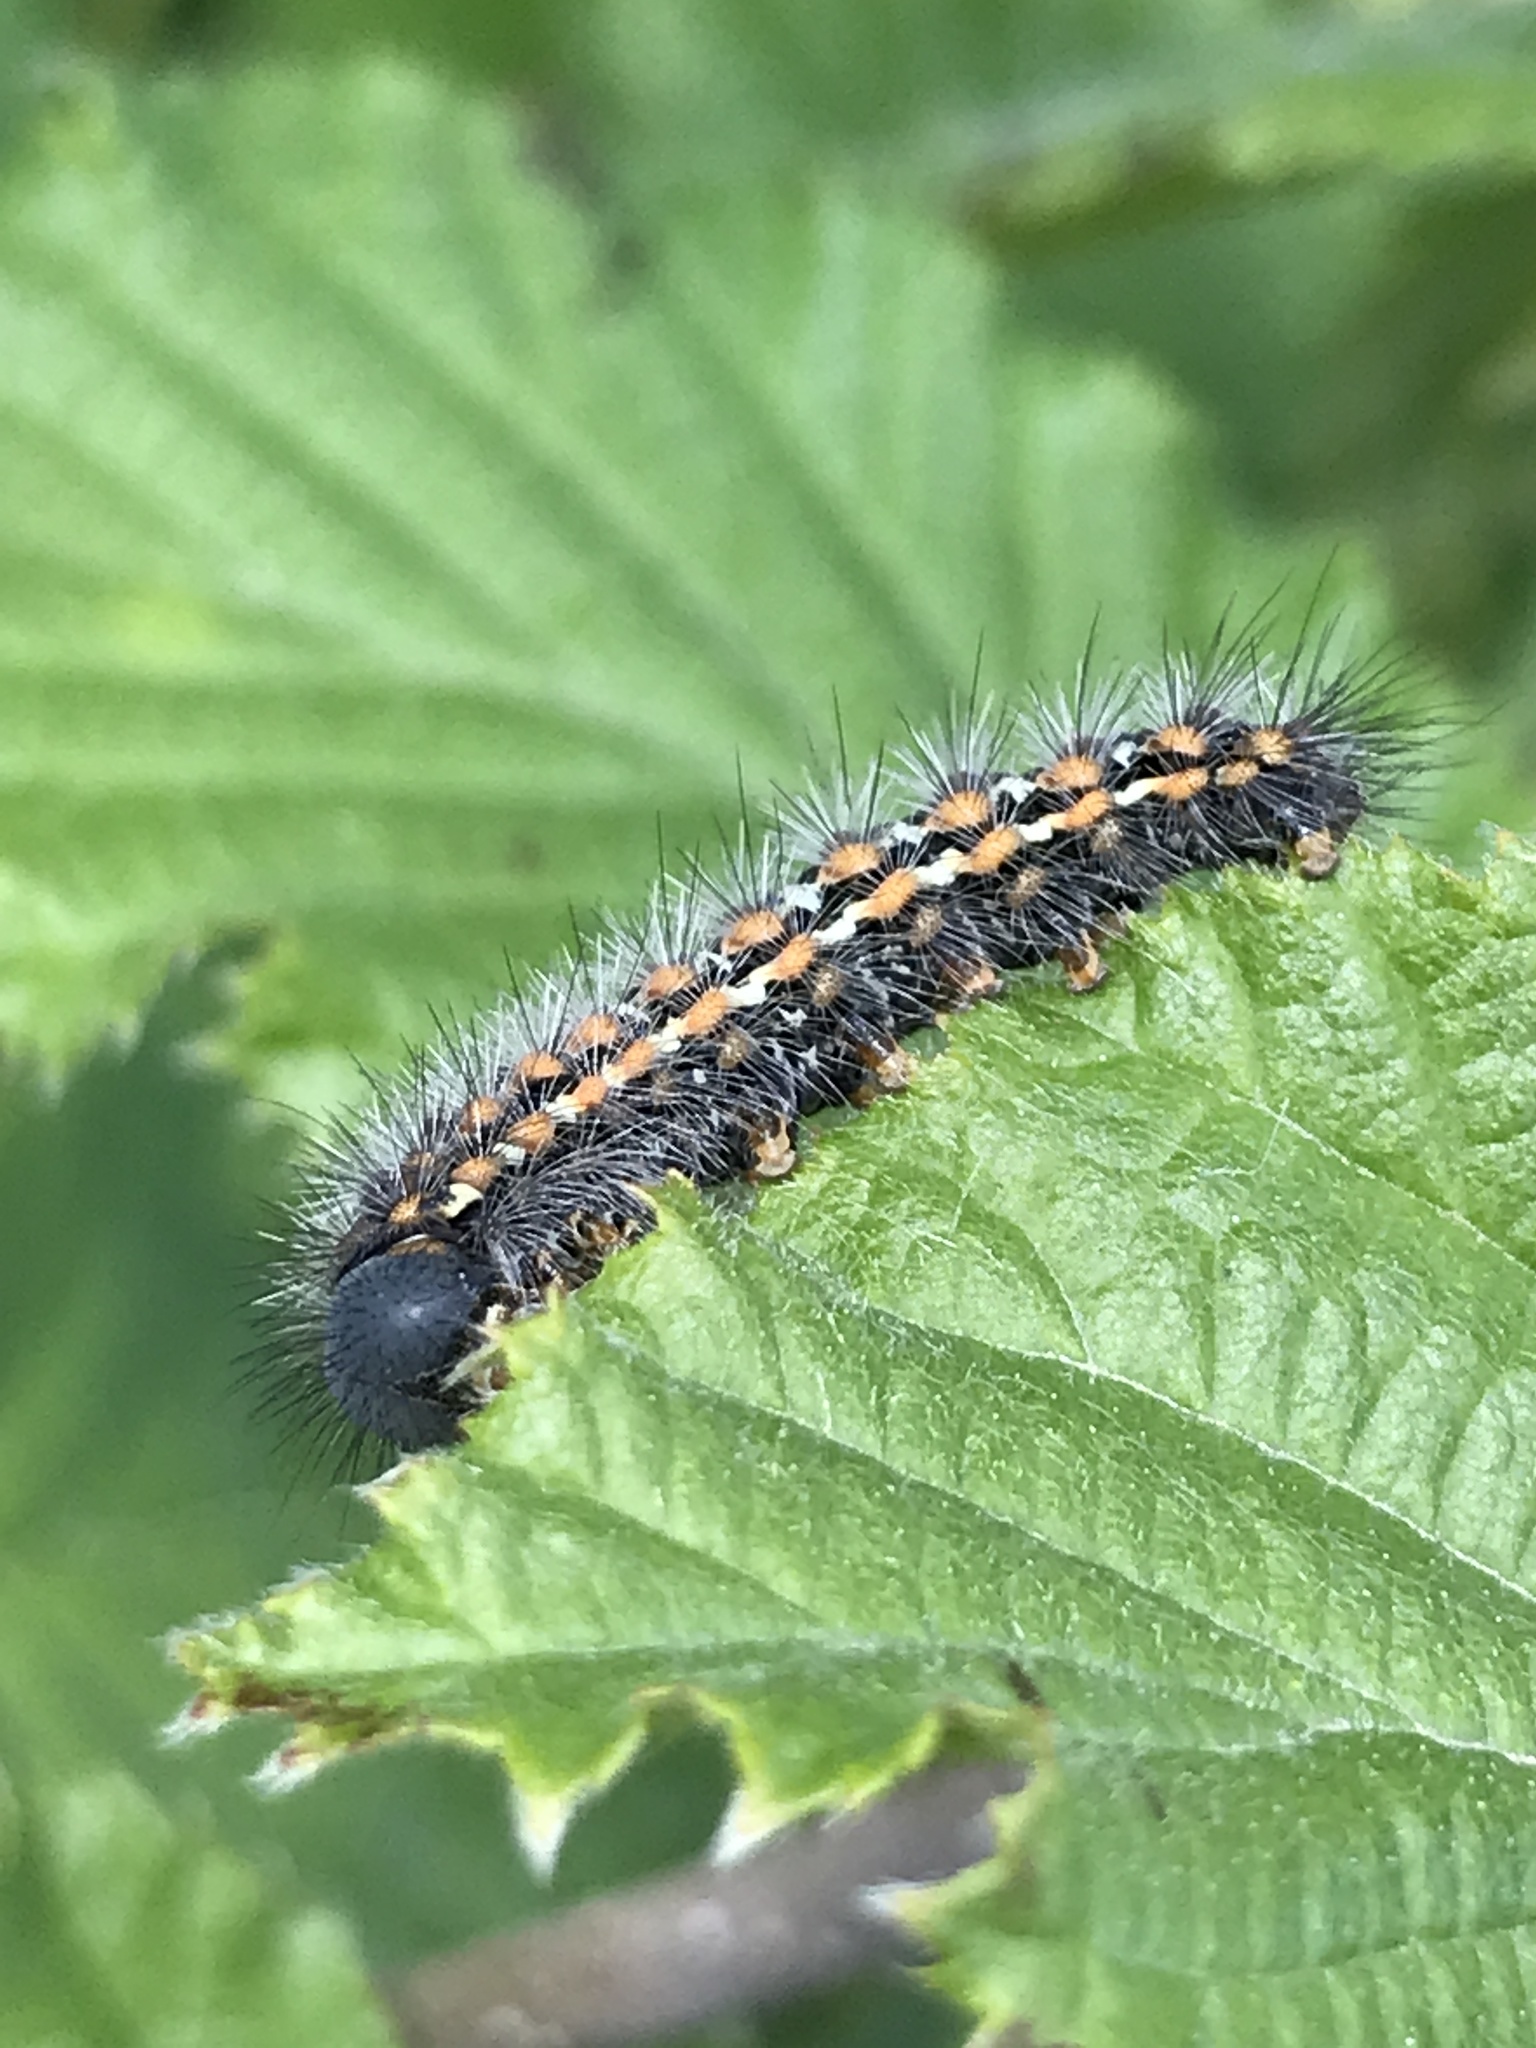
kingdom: Animalia
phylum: Arthropoda
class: Insecta
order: Lepidoptera
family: Erebidae
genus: Penthophera
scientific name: Penthophera morio
